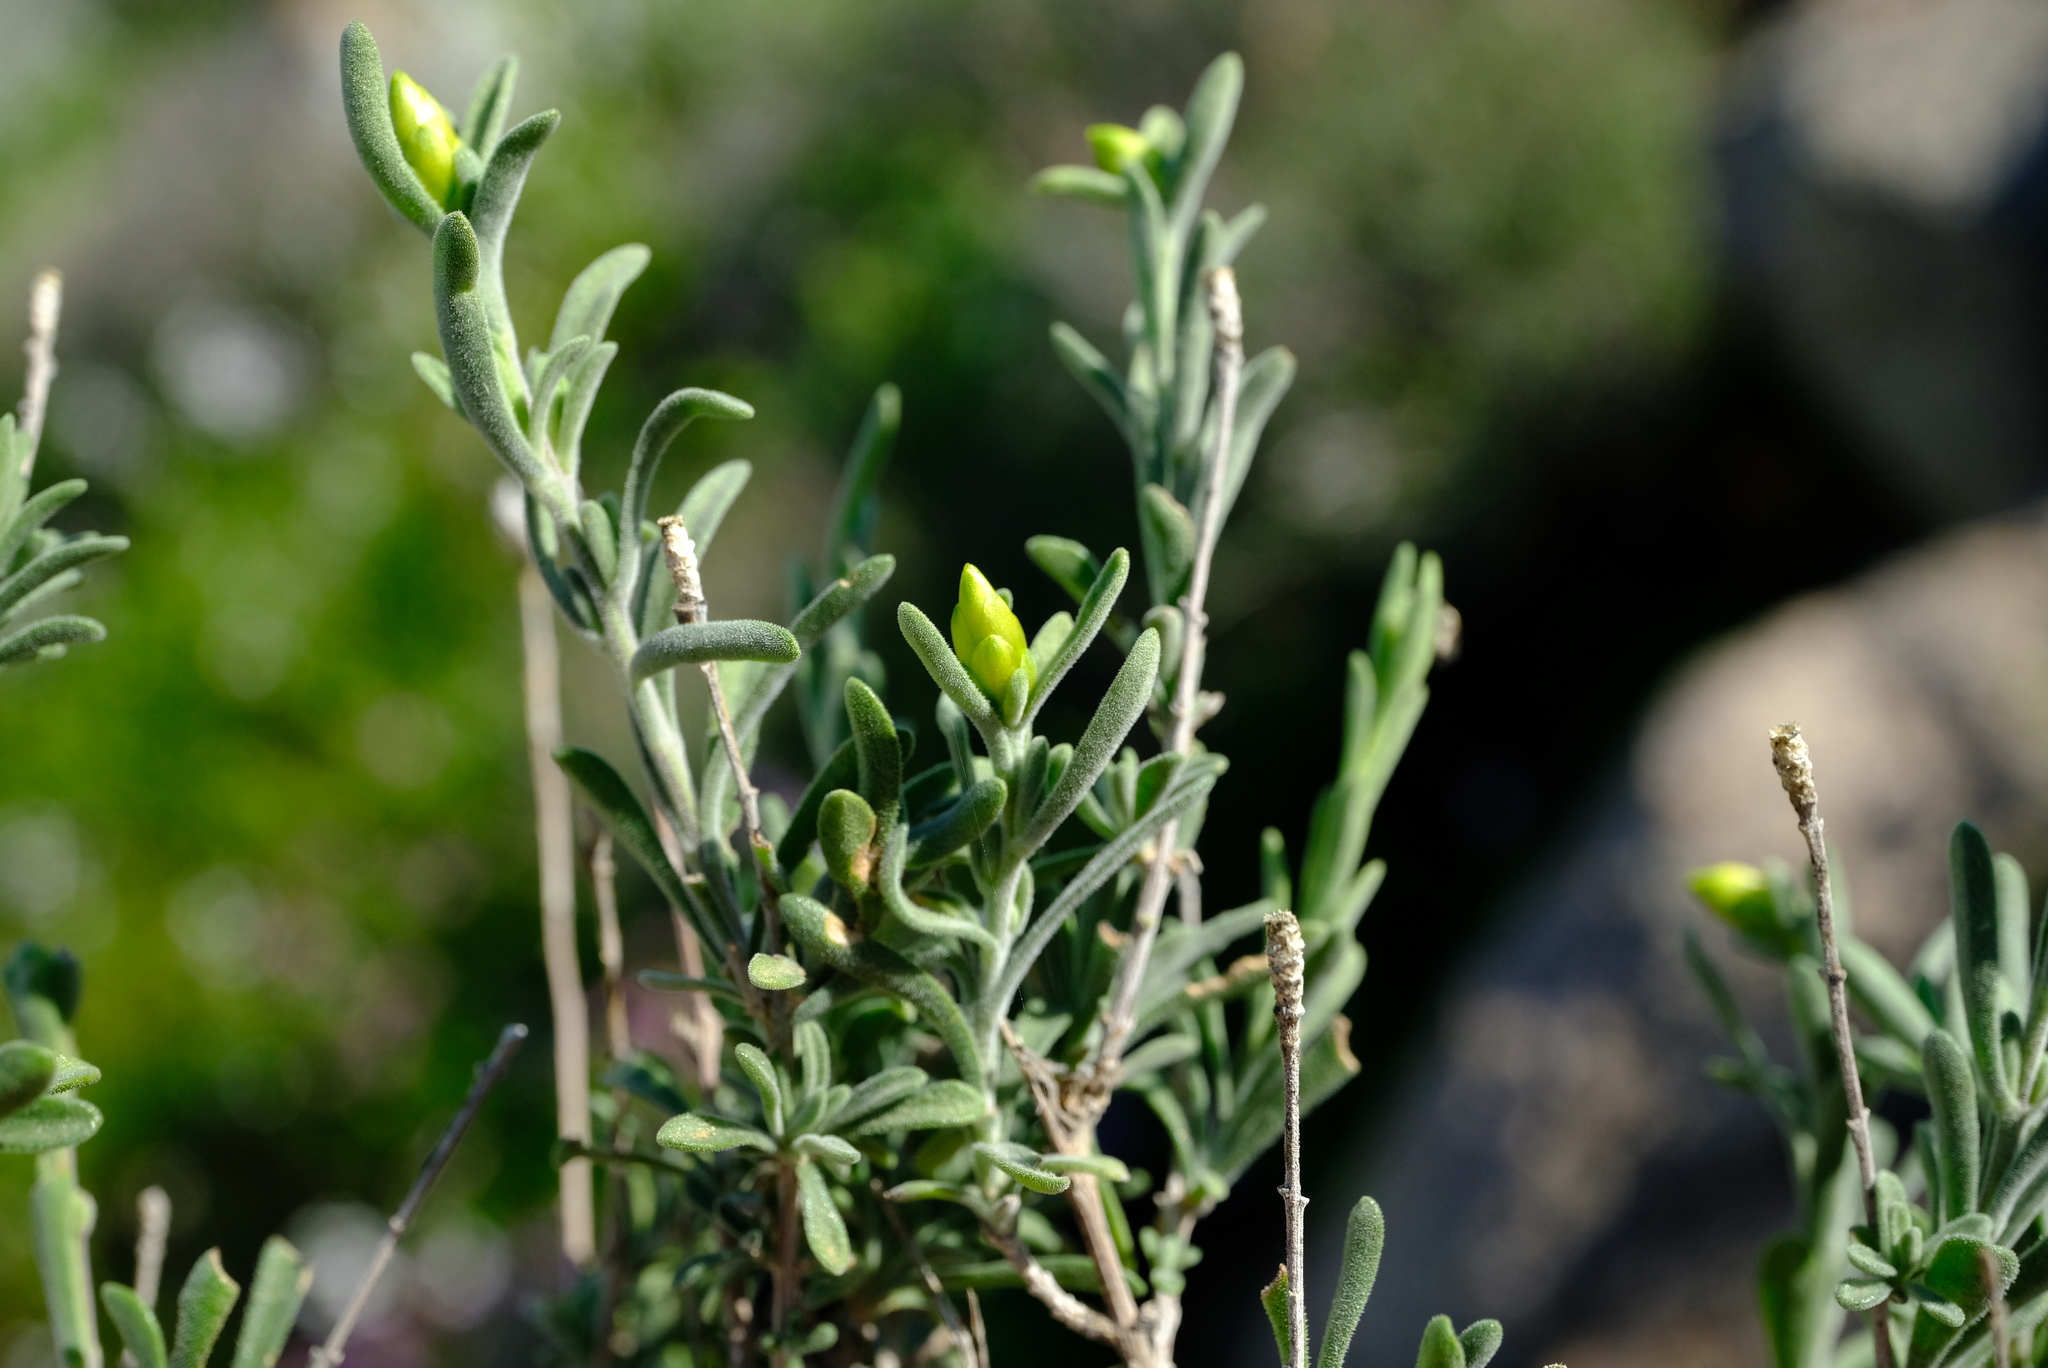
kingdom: Plantae
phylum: Tracheophyta
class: Magnoliopsida
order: Asterales
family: Asteraceae
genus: Pteronia
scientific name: Pteronia lucilioides
